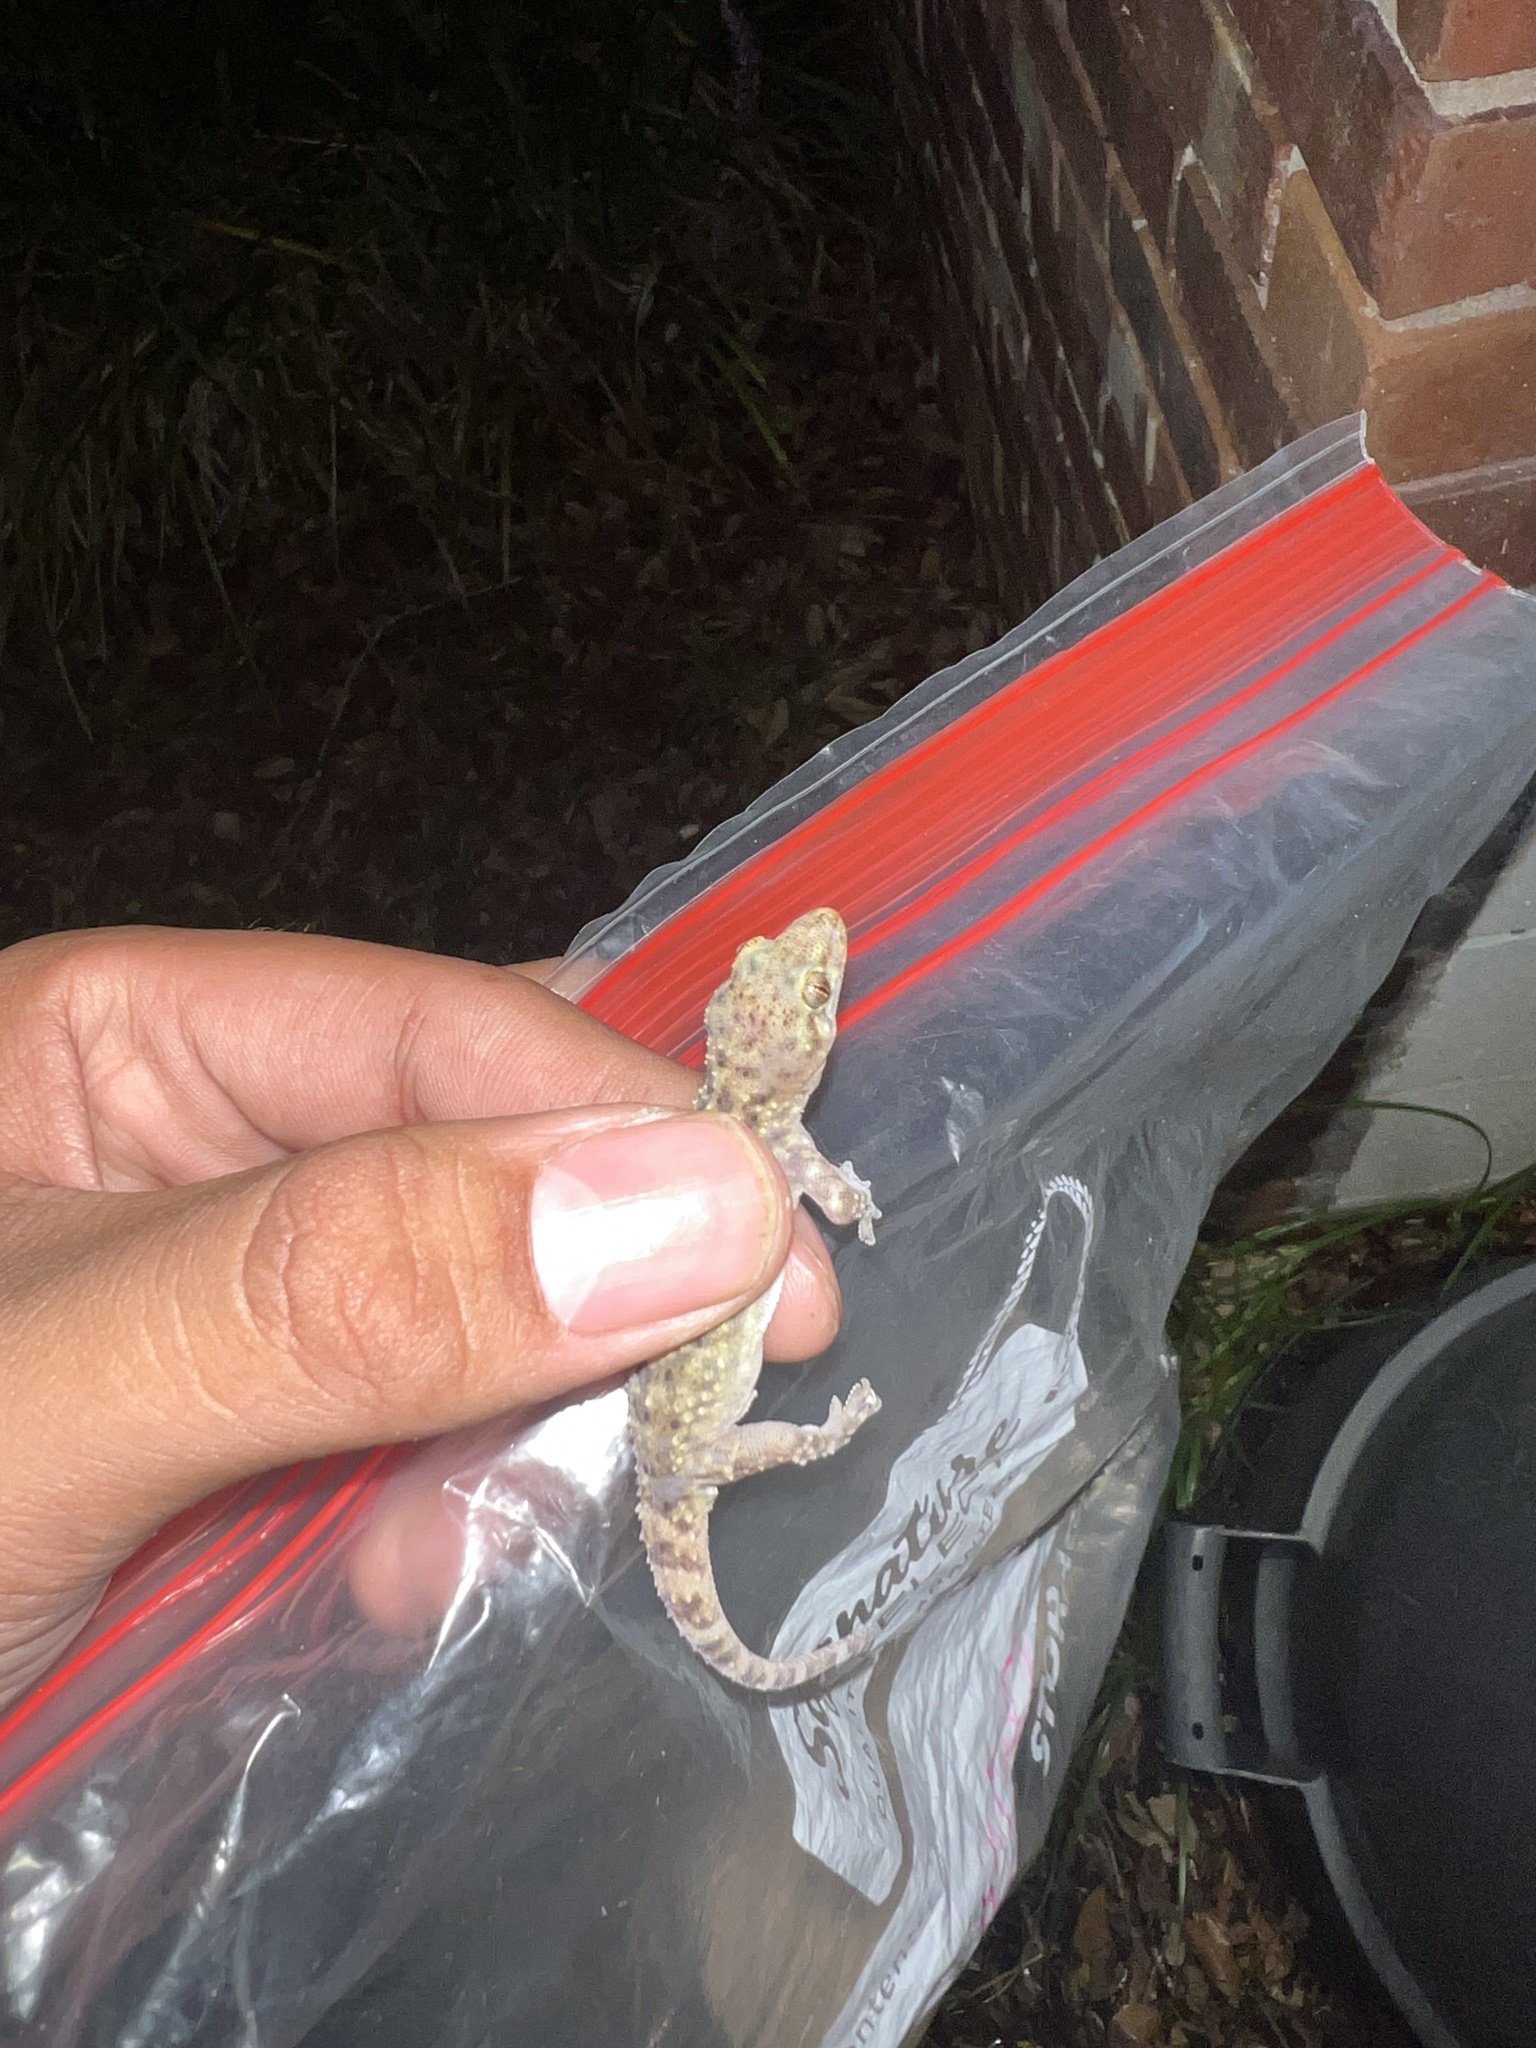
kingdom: Animalia
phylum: Chordata
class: Squamata
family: Gekkonidae
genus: Hemidactylus
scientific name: Hemidactylus turcicus
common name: Turkish gecko
